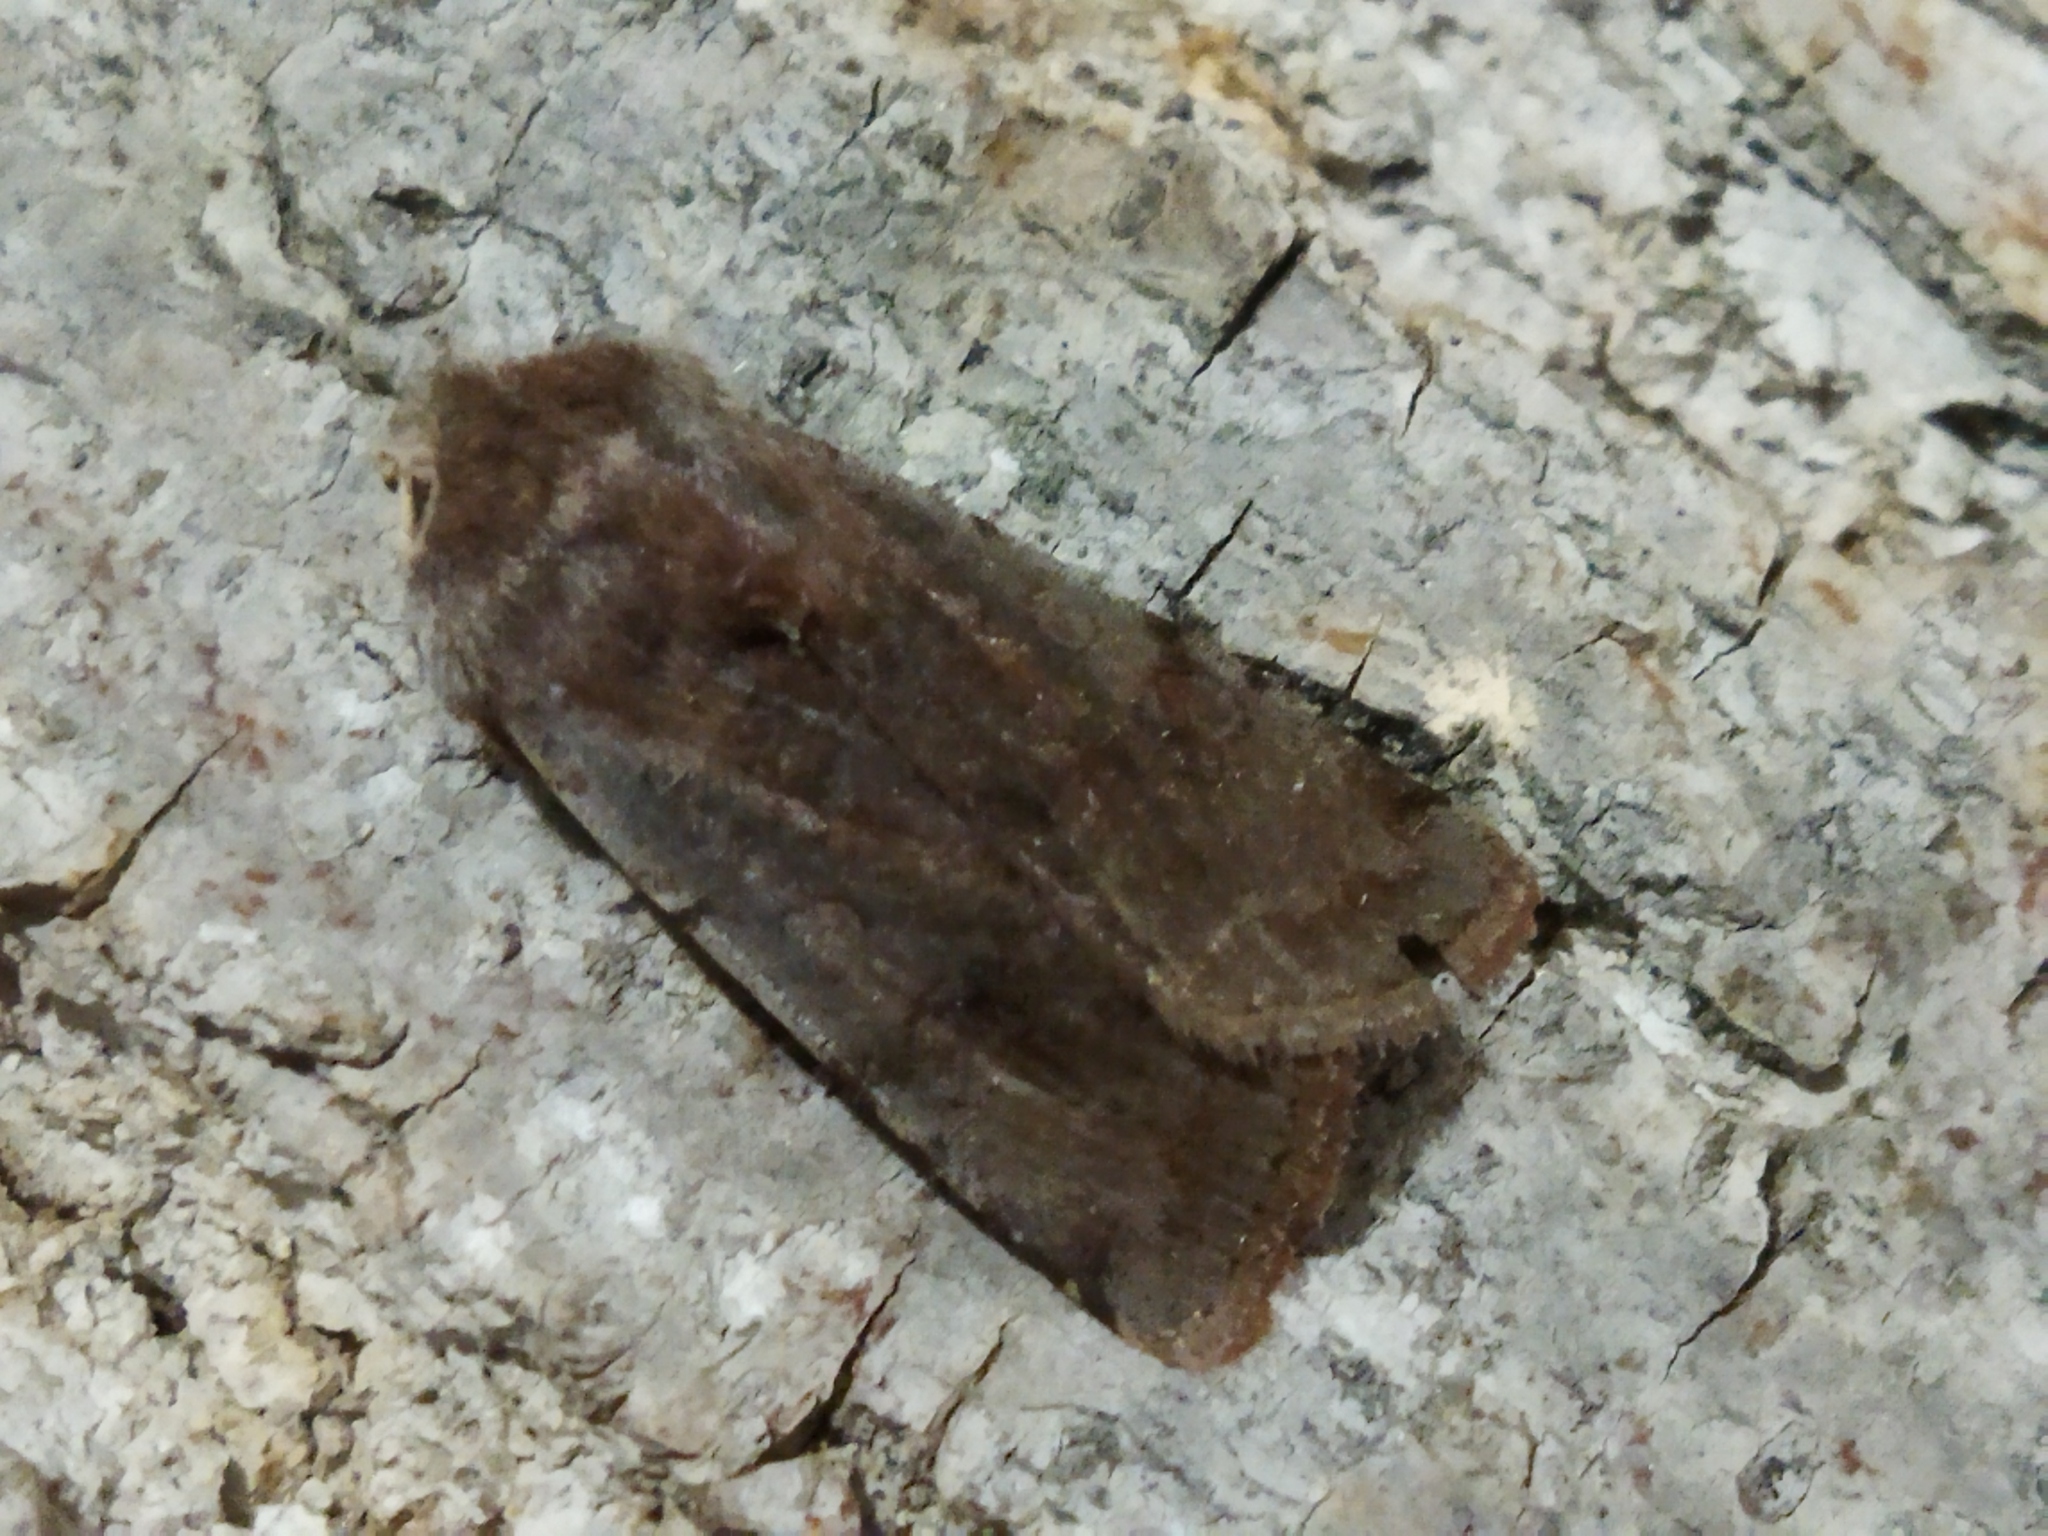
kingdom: Animalia
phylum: Arthropoda
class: Insecta
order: Lepidoptera
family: Noctuidae
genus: Cerastis
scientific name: Cerastis rubricosa
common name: Red chestnut
